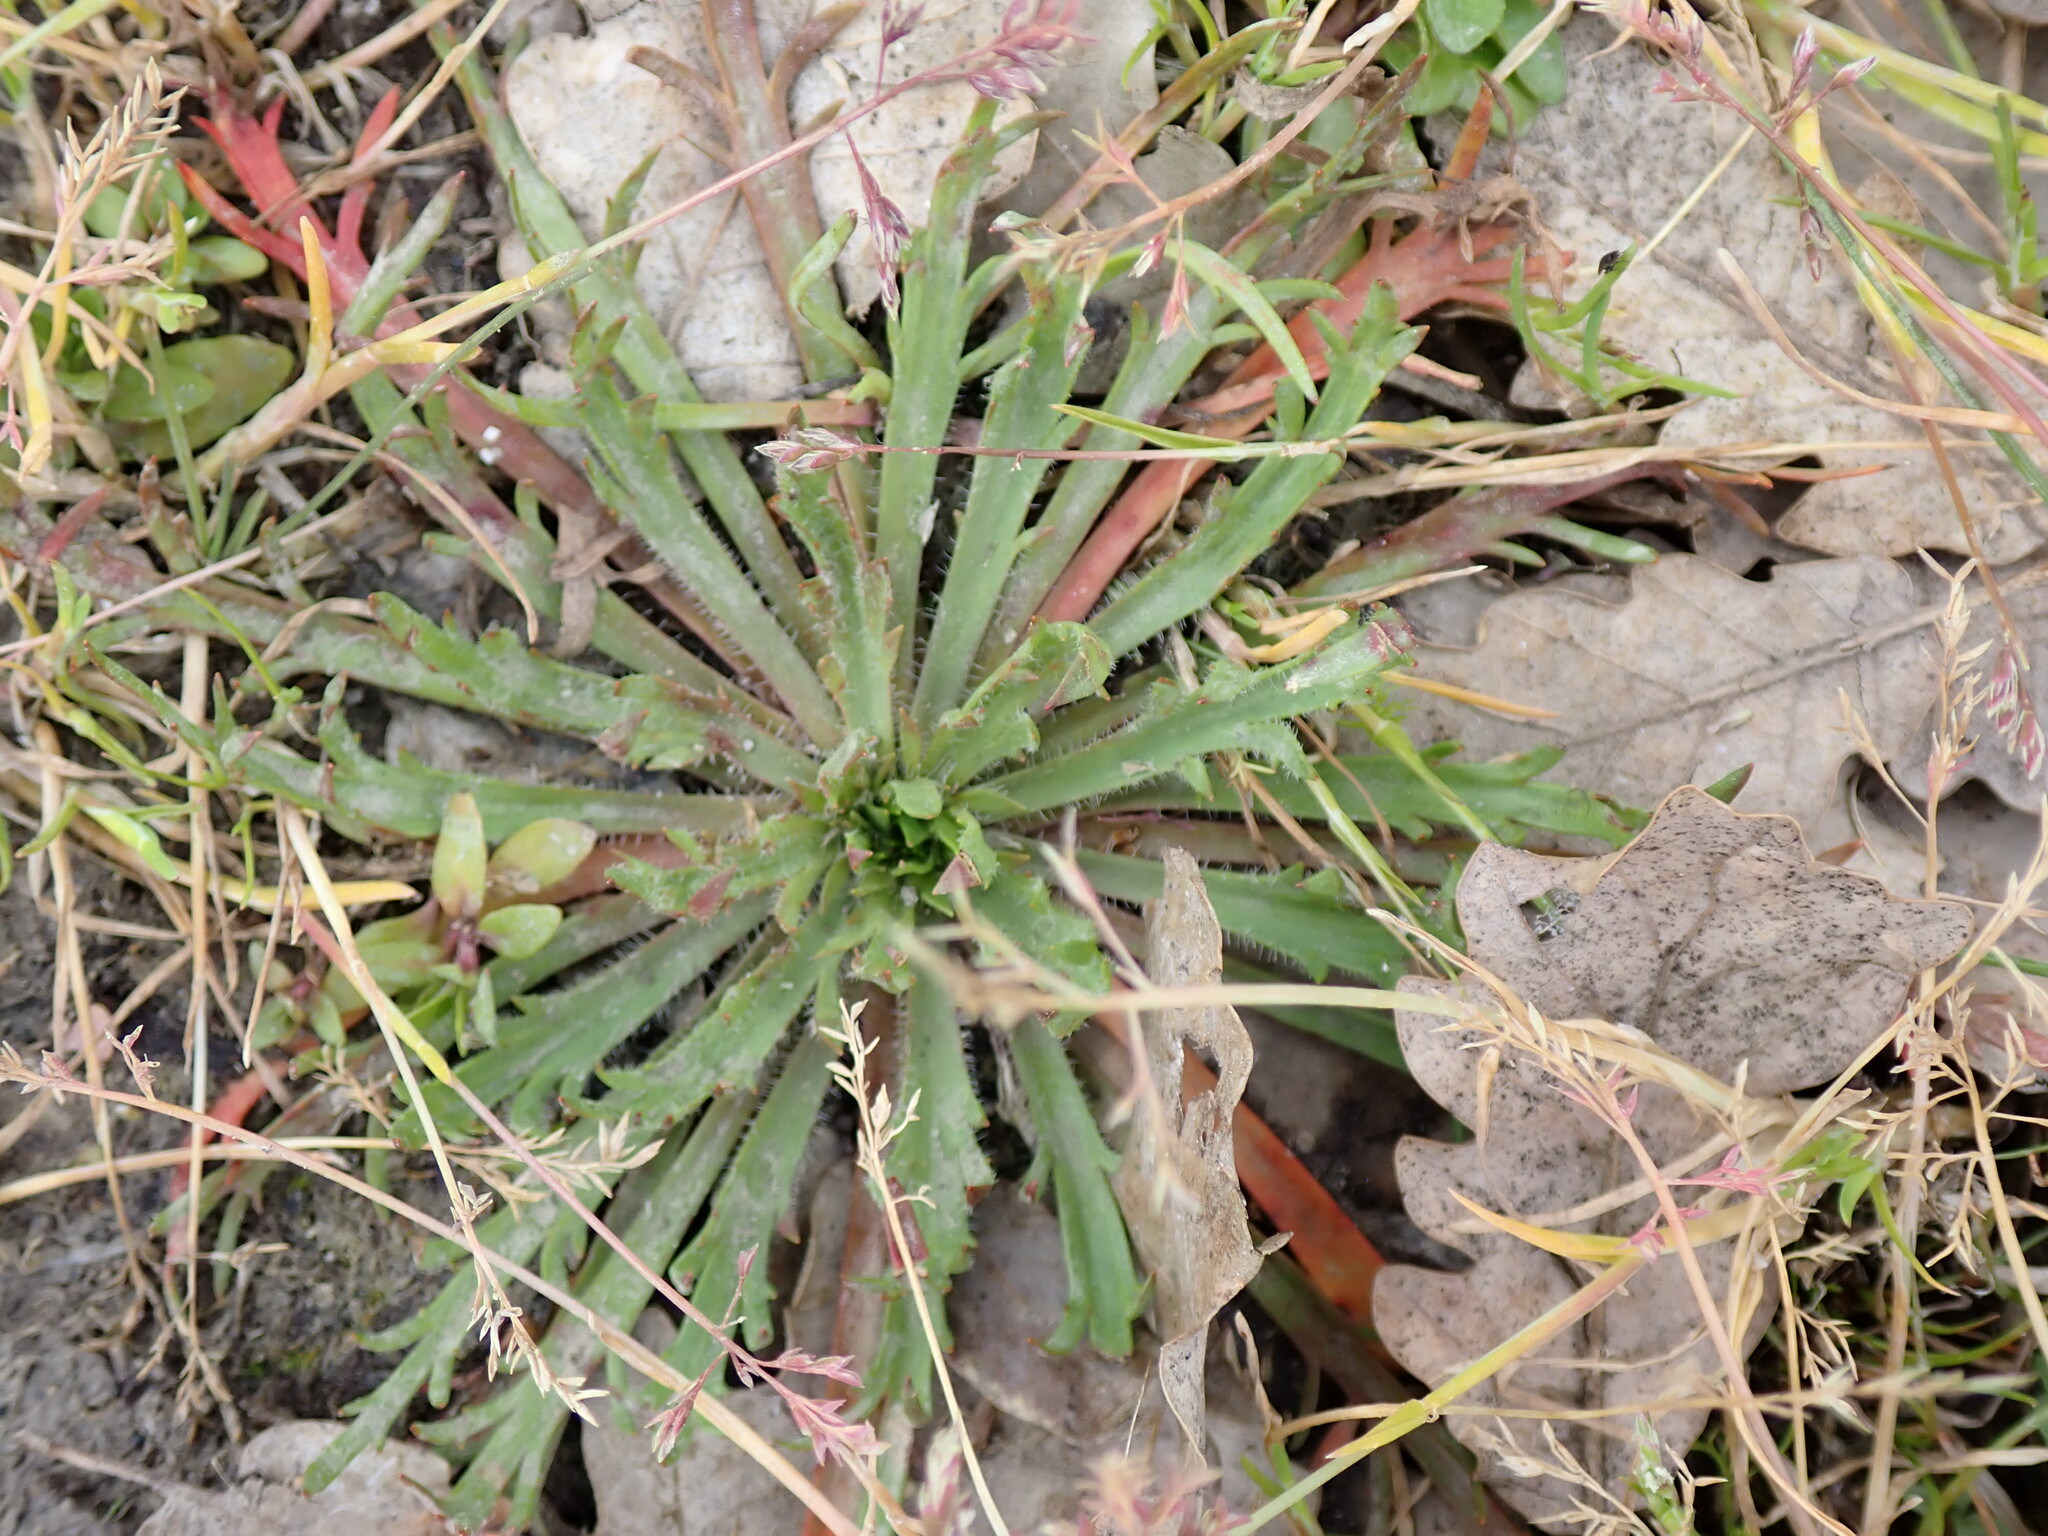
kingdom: Plantae
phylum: Tracheophyta
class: Magnoliopsida
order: Lamiales
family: Plantaginaceae
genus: Plantago
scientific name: Plantago coronopus
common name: Buck's-horn plantain
